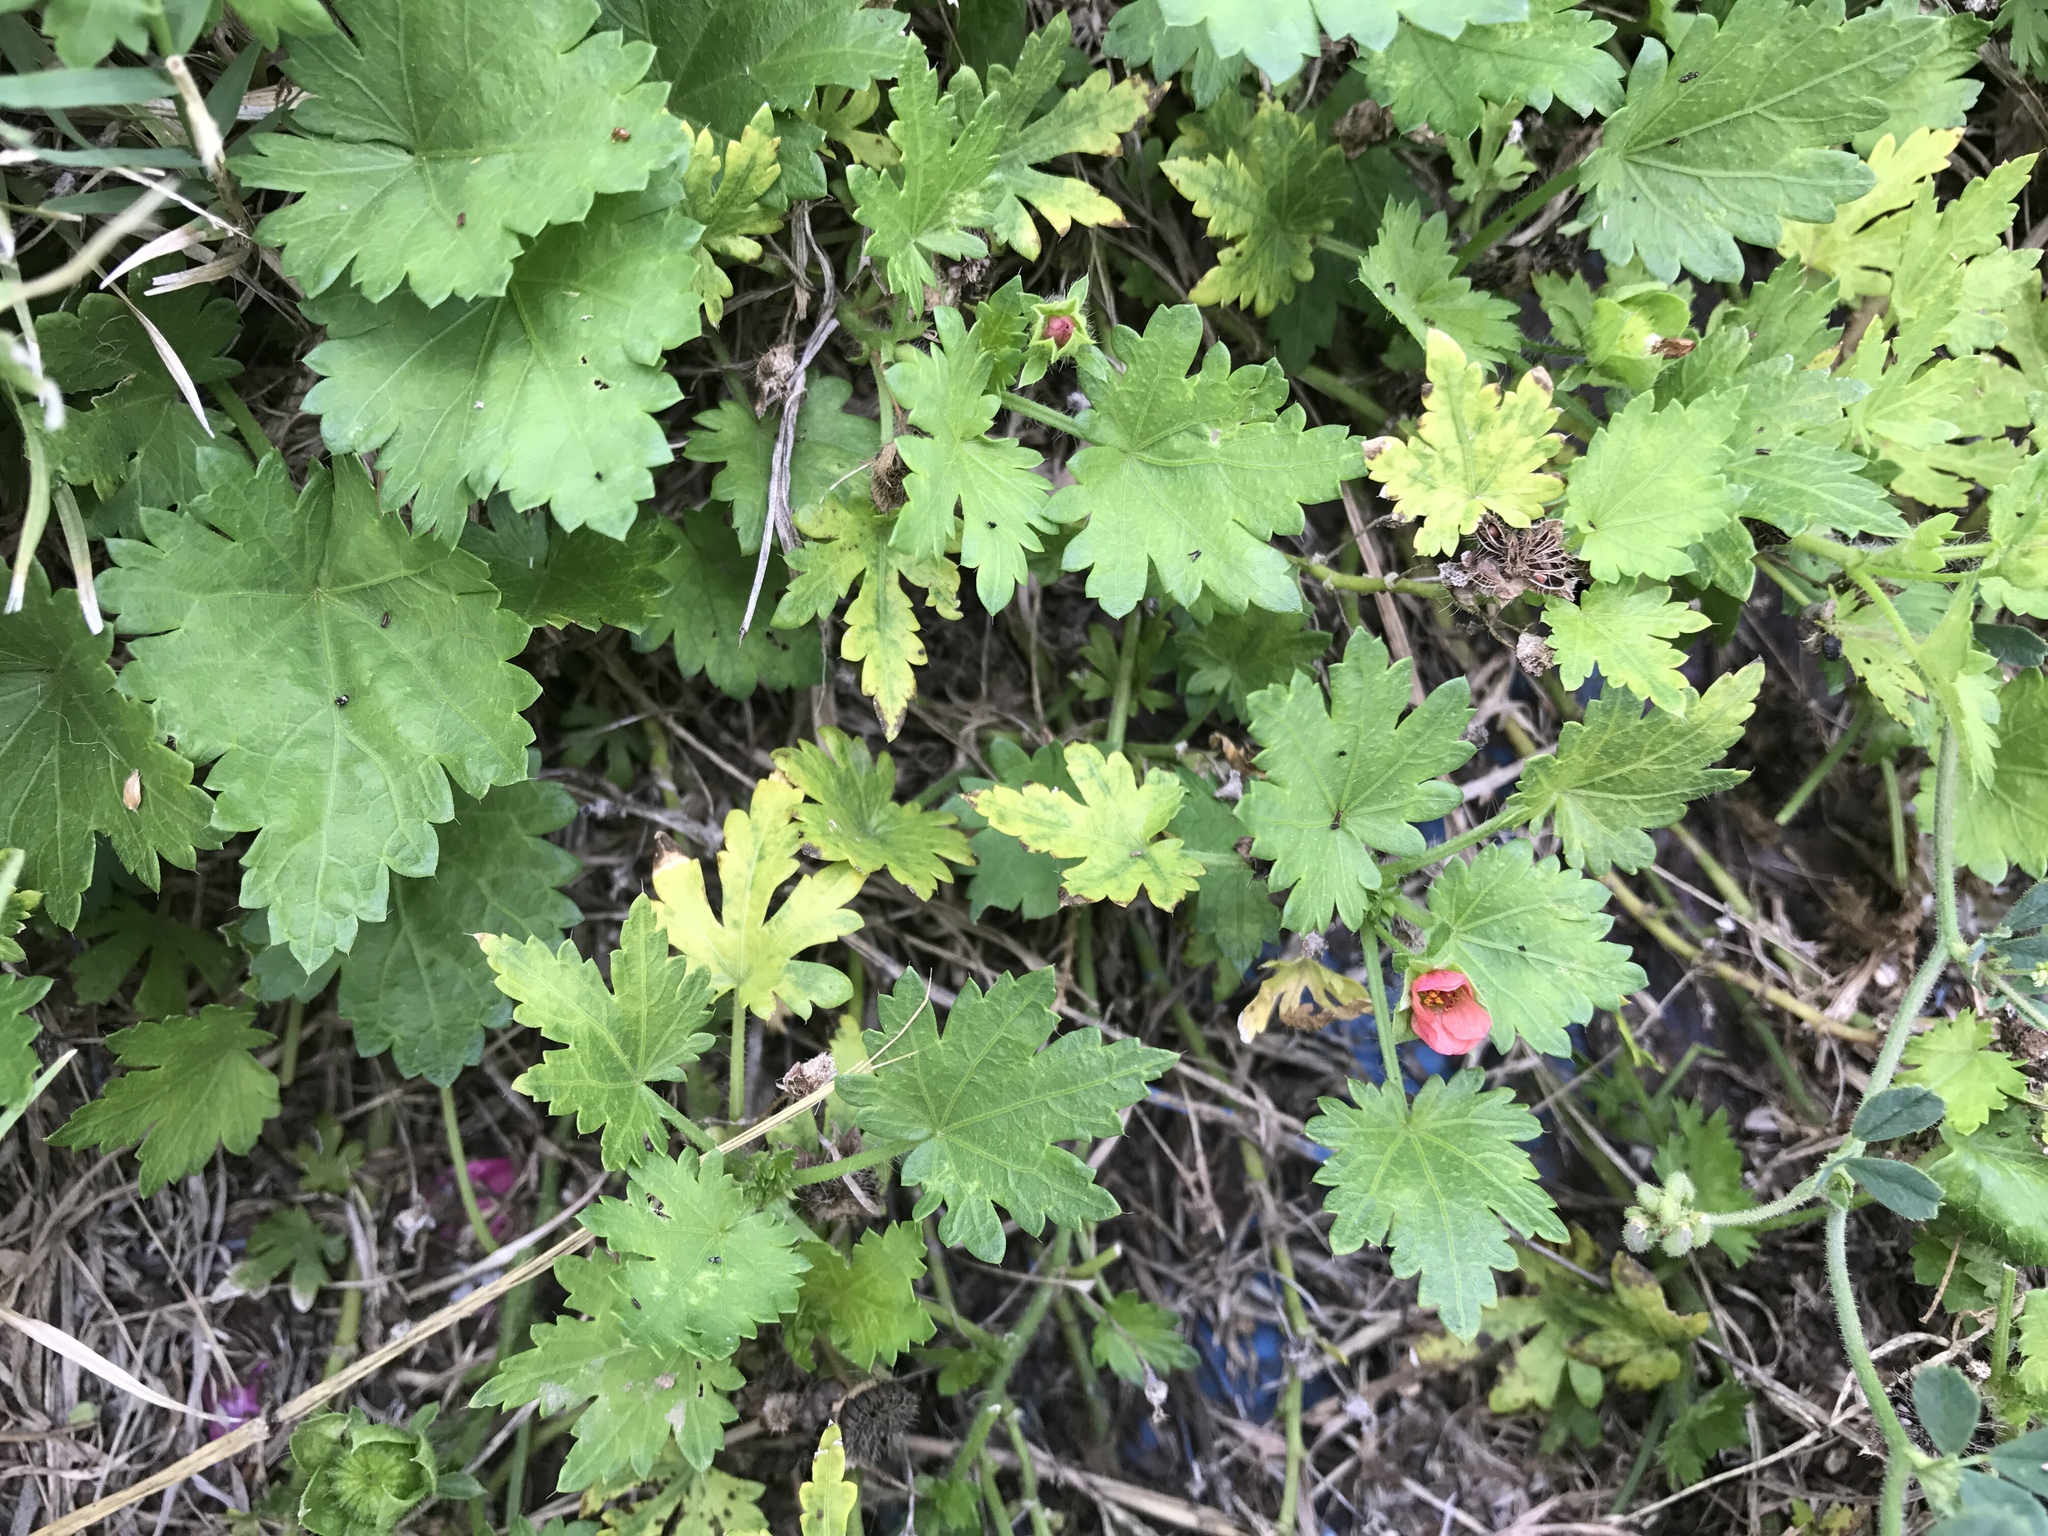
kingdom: Plantae
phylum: Tracheophyta
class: Magnoliopsida
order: Malvales
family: Malvaceae
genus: Modiola
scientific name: Modiola caroliniana
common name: Carolina bristlemallow
